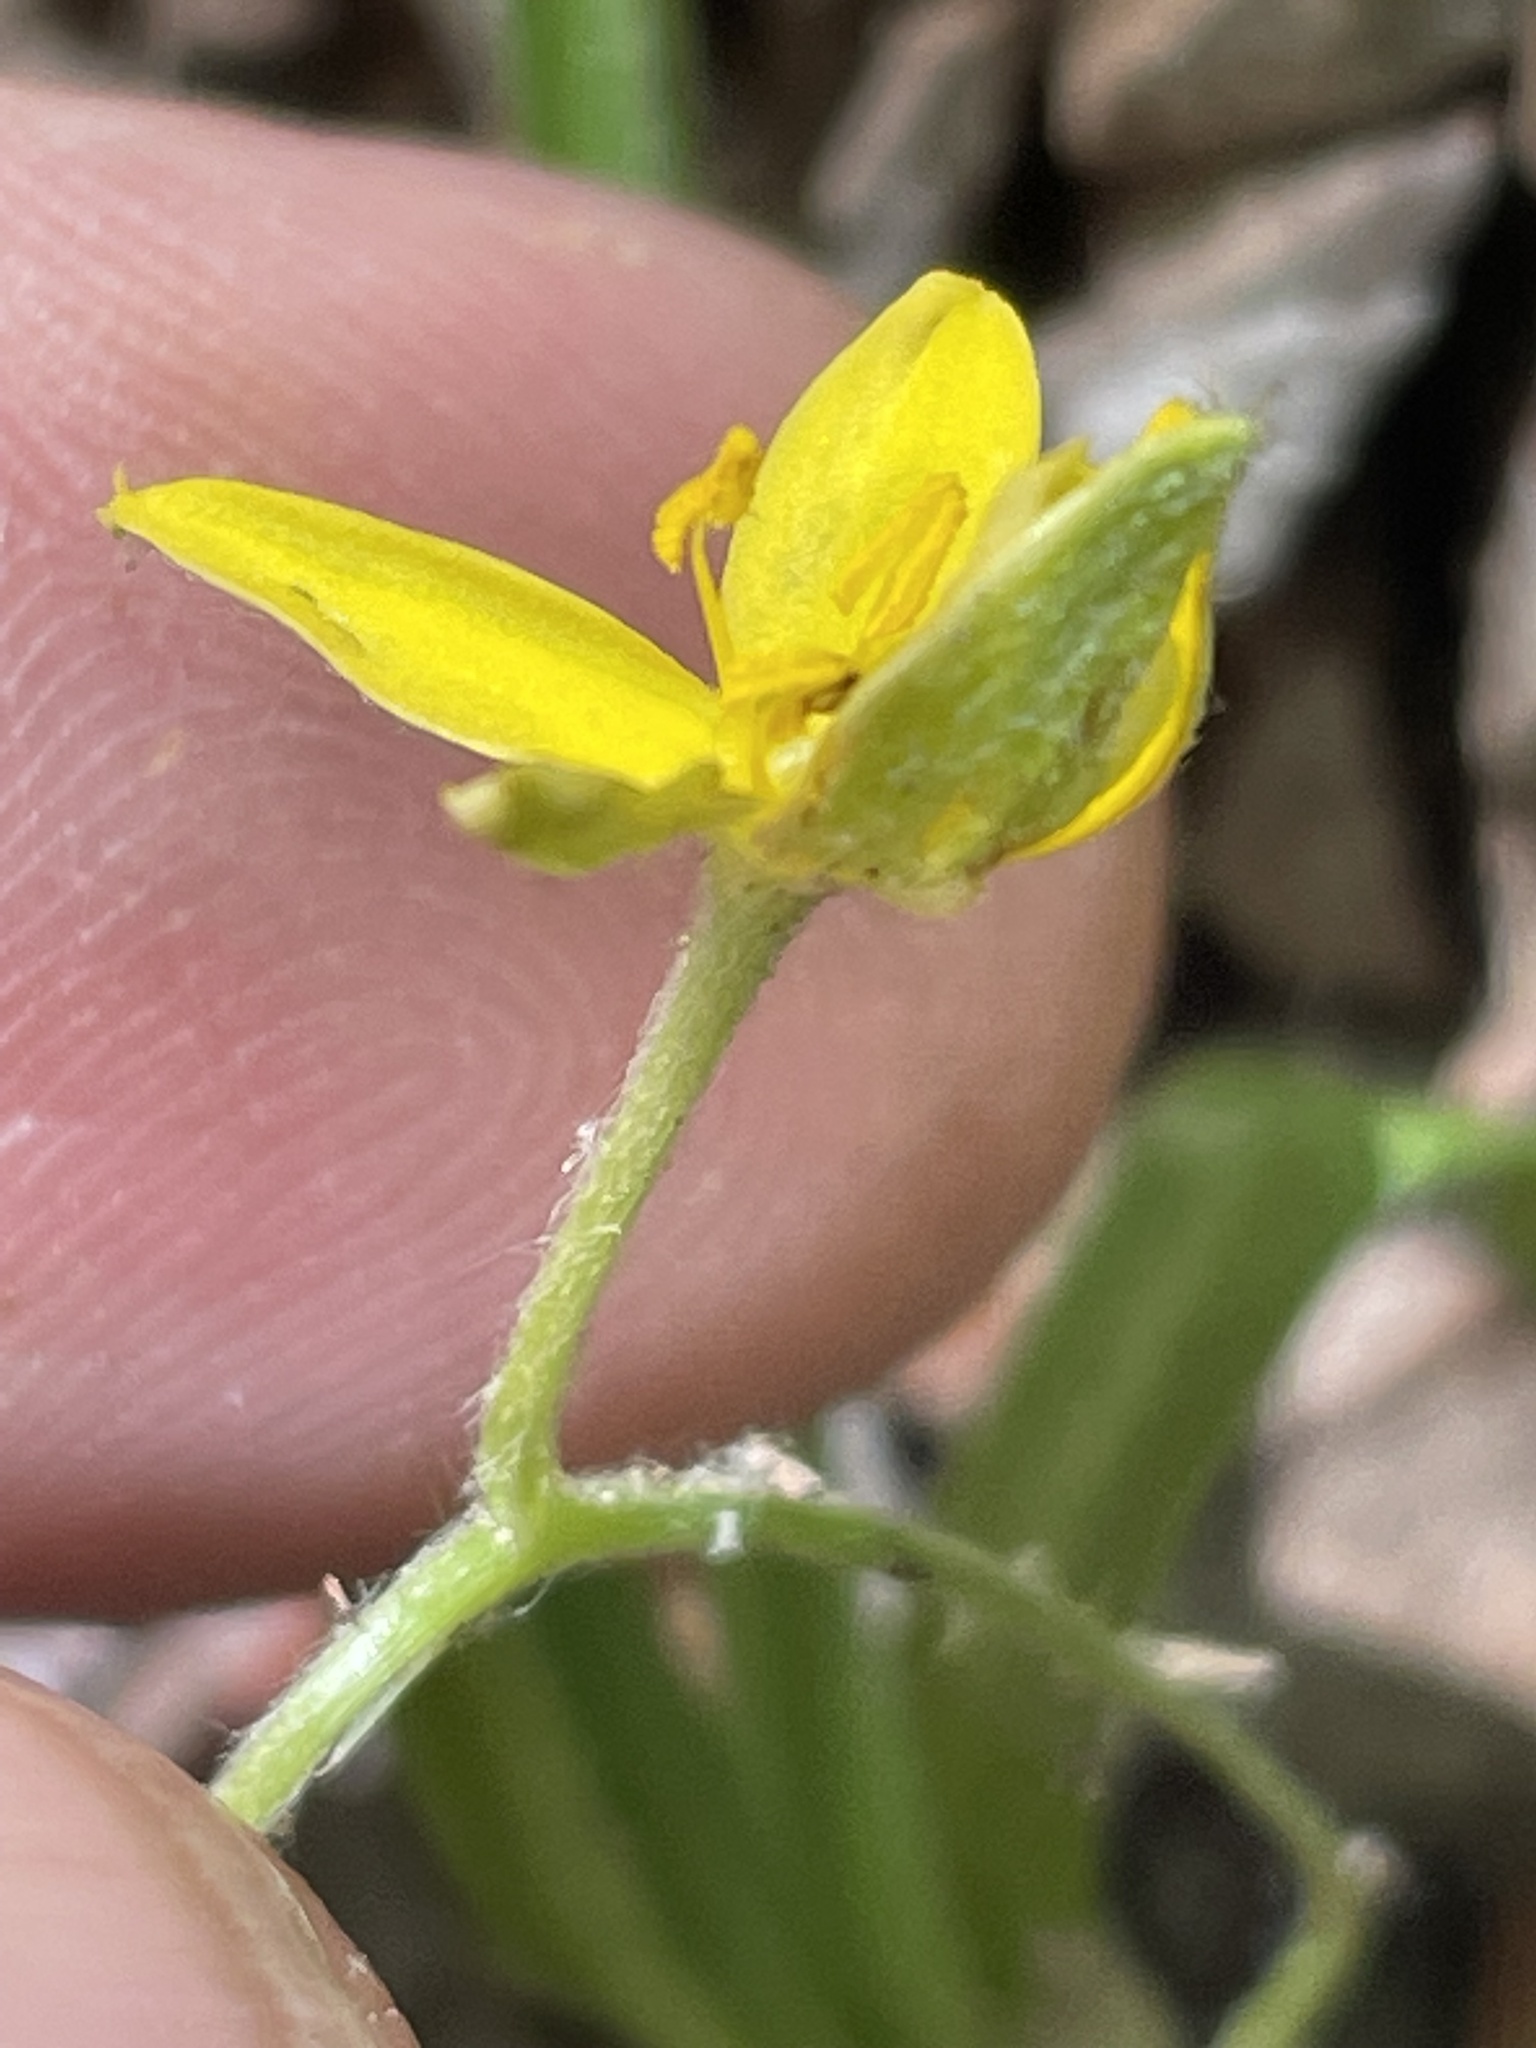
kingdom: Plantae
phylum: Tracheophyta
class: Liliopsida
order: Asparagales
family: Hypoxidaceae
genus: Hypoxis
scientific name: Hypoxis hirsuta
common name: Common goldstar
